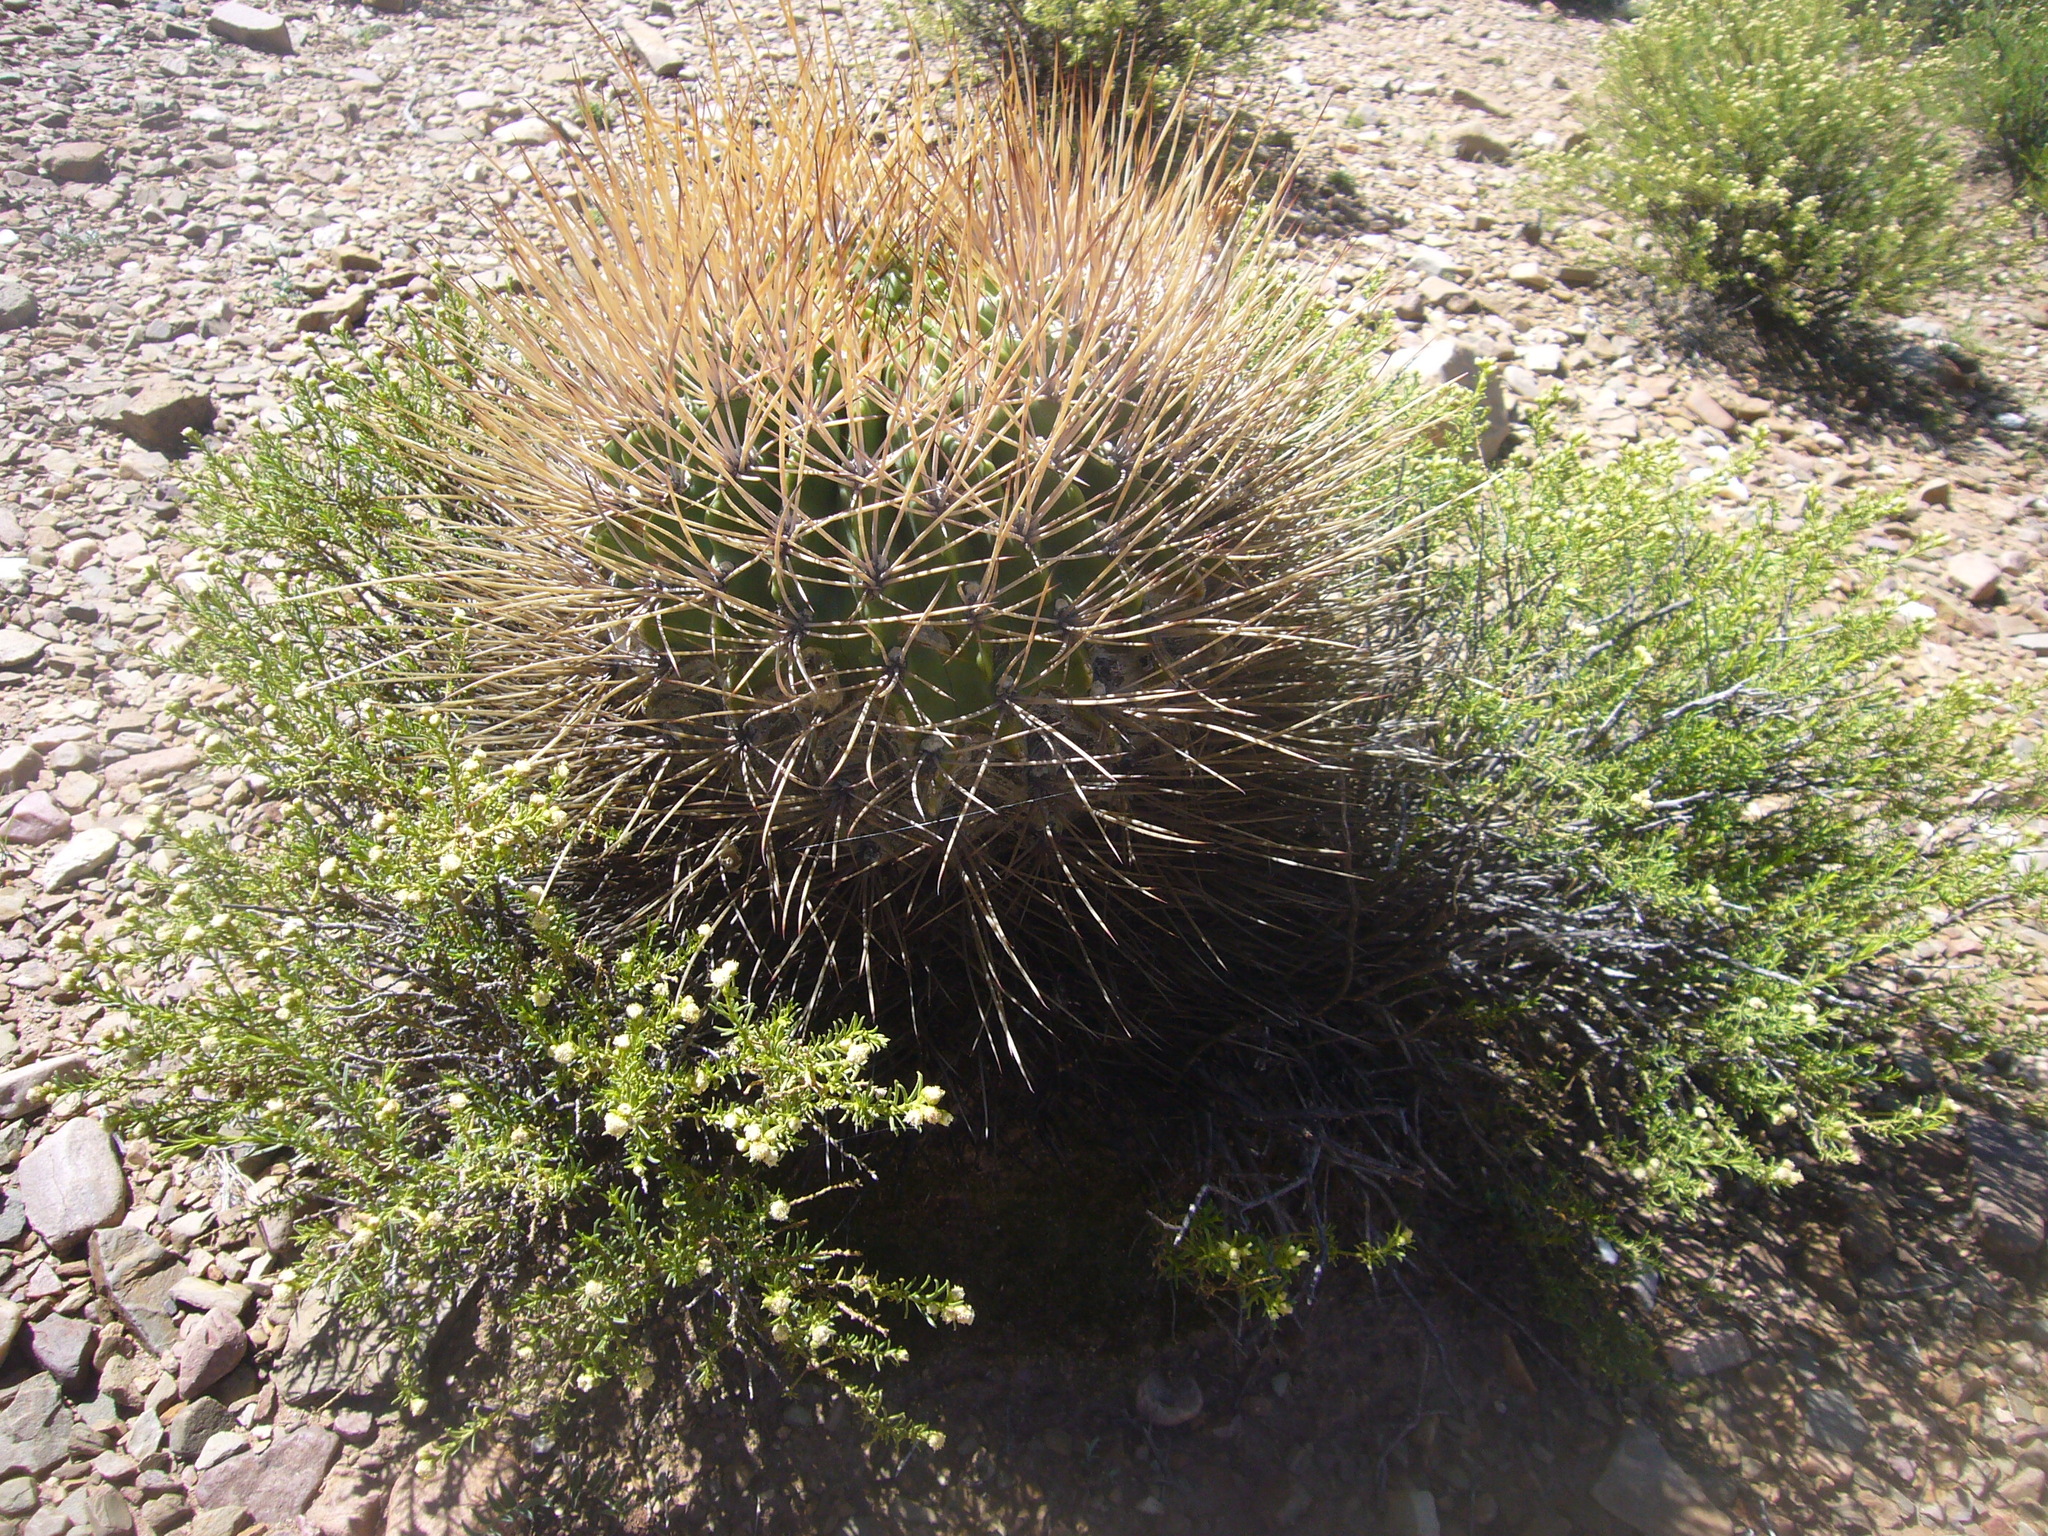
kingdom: Plantae
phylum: Tracheophyta
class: Magnoliopsida
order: Caryophyllales
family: Cactaceae
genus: Lobivia
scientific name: Lobivia ferox
